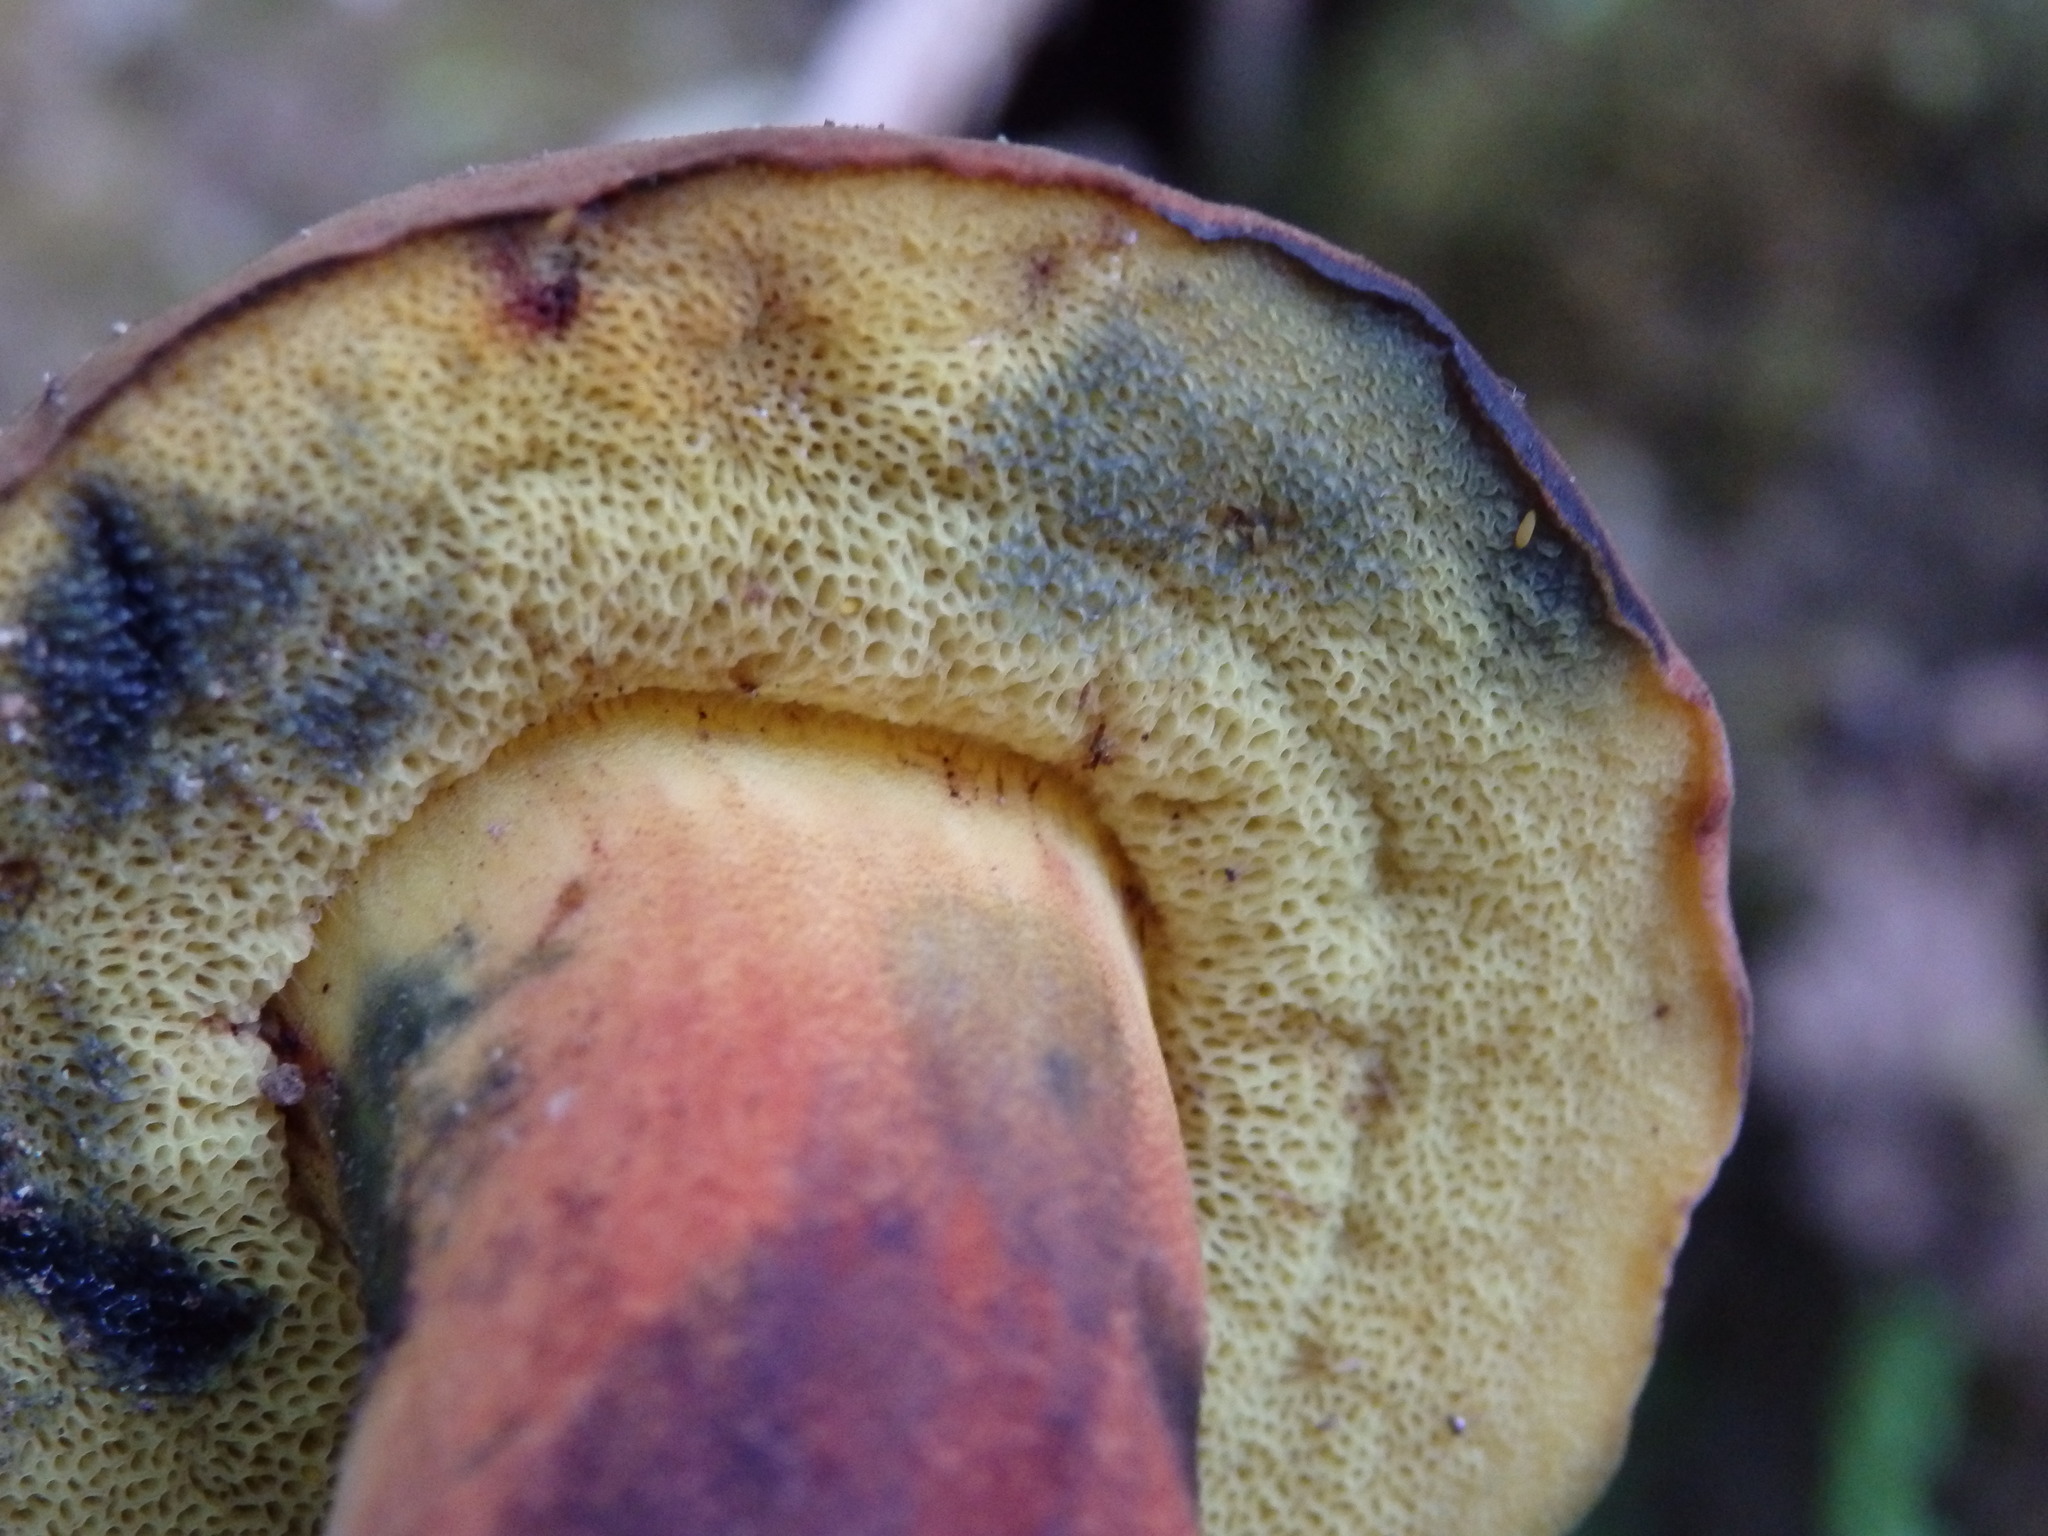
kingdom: Fungi
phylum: Basidiomycota
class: Agaricomycetes
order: Boletales
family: Boletaceae
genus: Cyanoboletus
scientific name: Cyanoboletus pulverulentus
